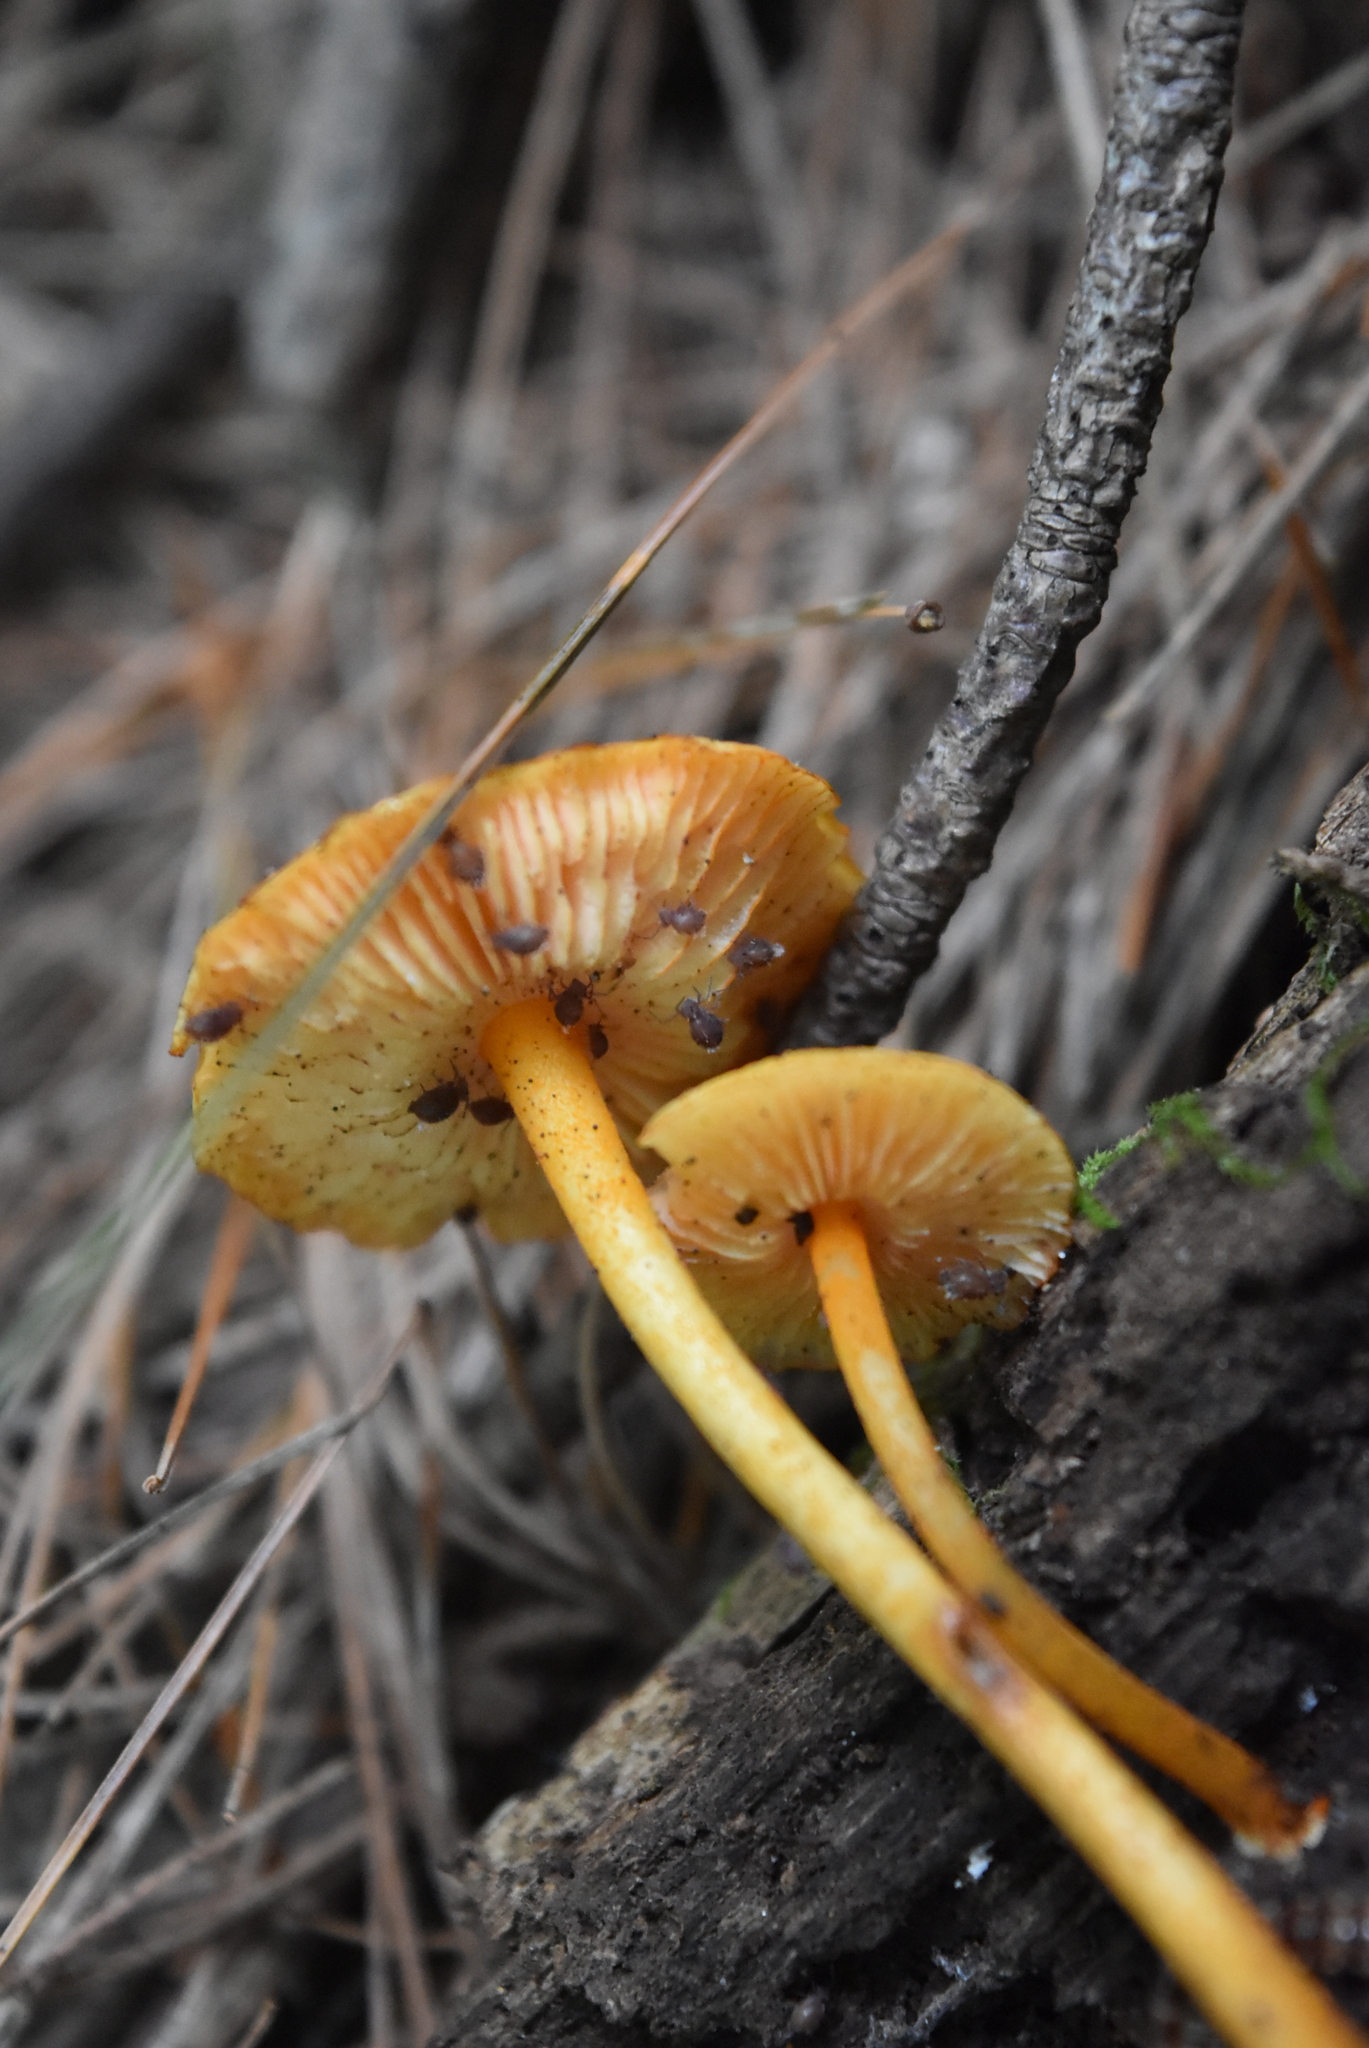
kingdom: Fungi
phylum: Basidiomycota
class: Agaricomycetes
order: Agaricales
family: Mycenaceae
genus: Mycena
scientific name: Mycena leaiana
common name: Orange mycena
